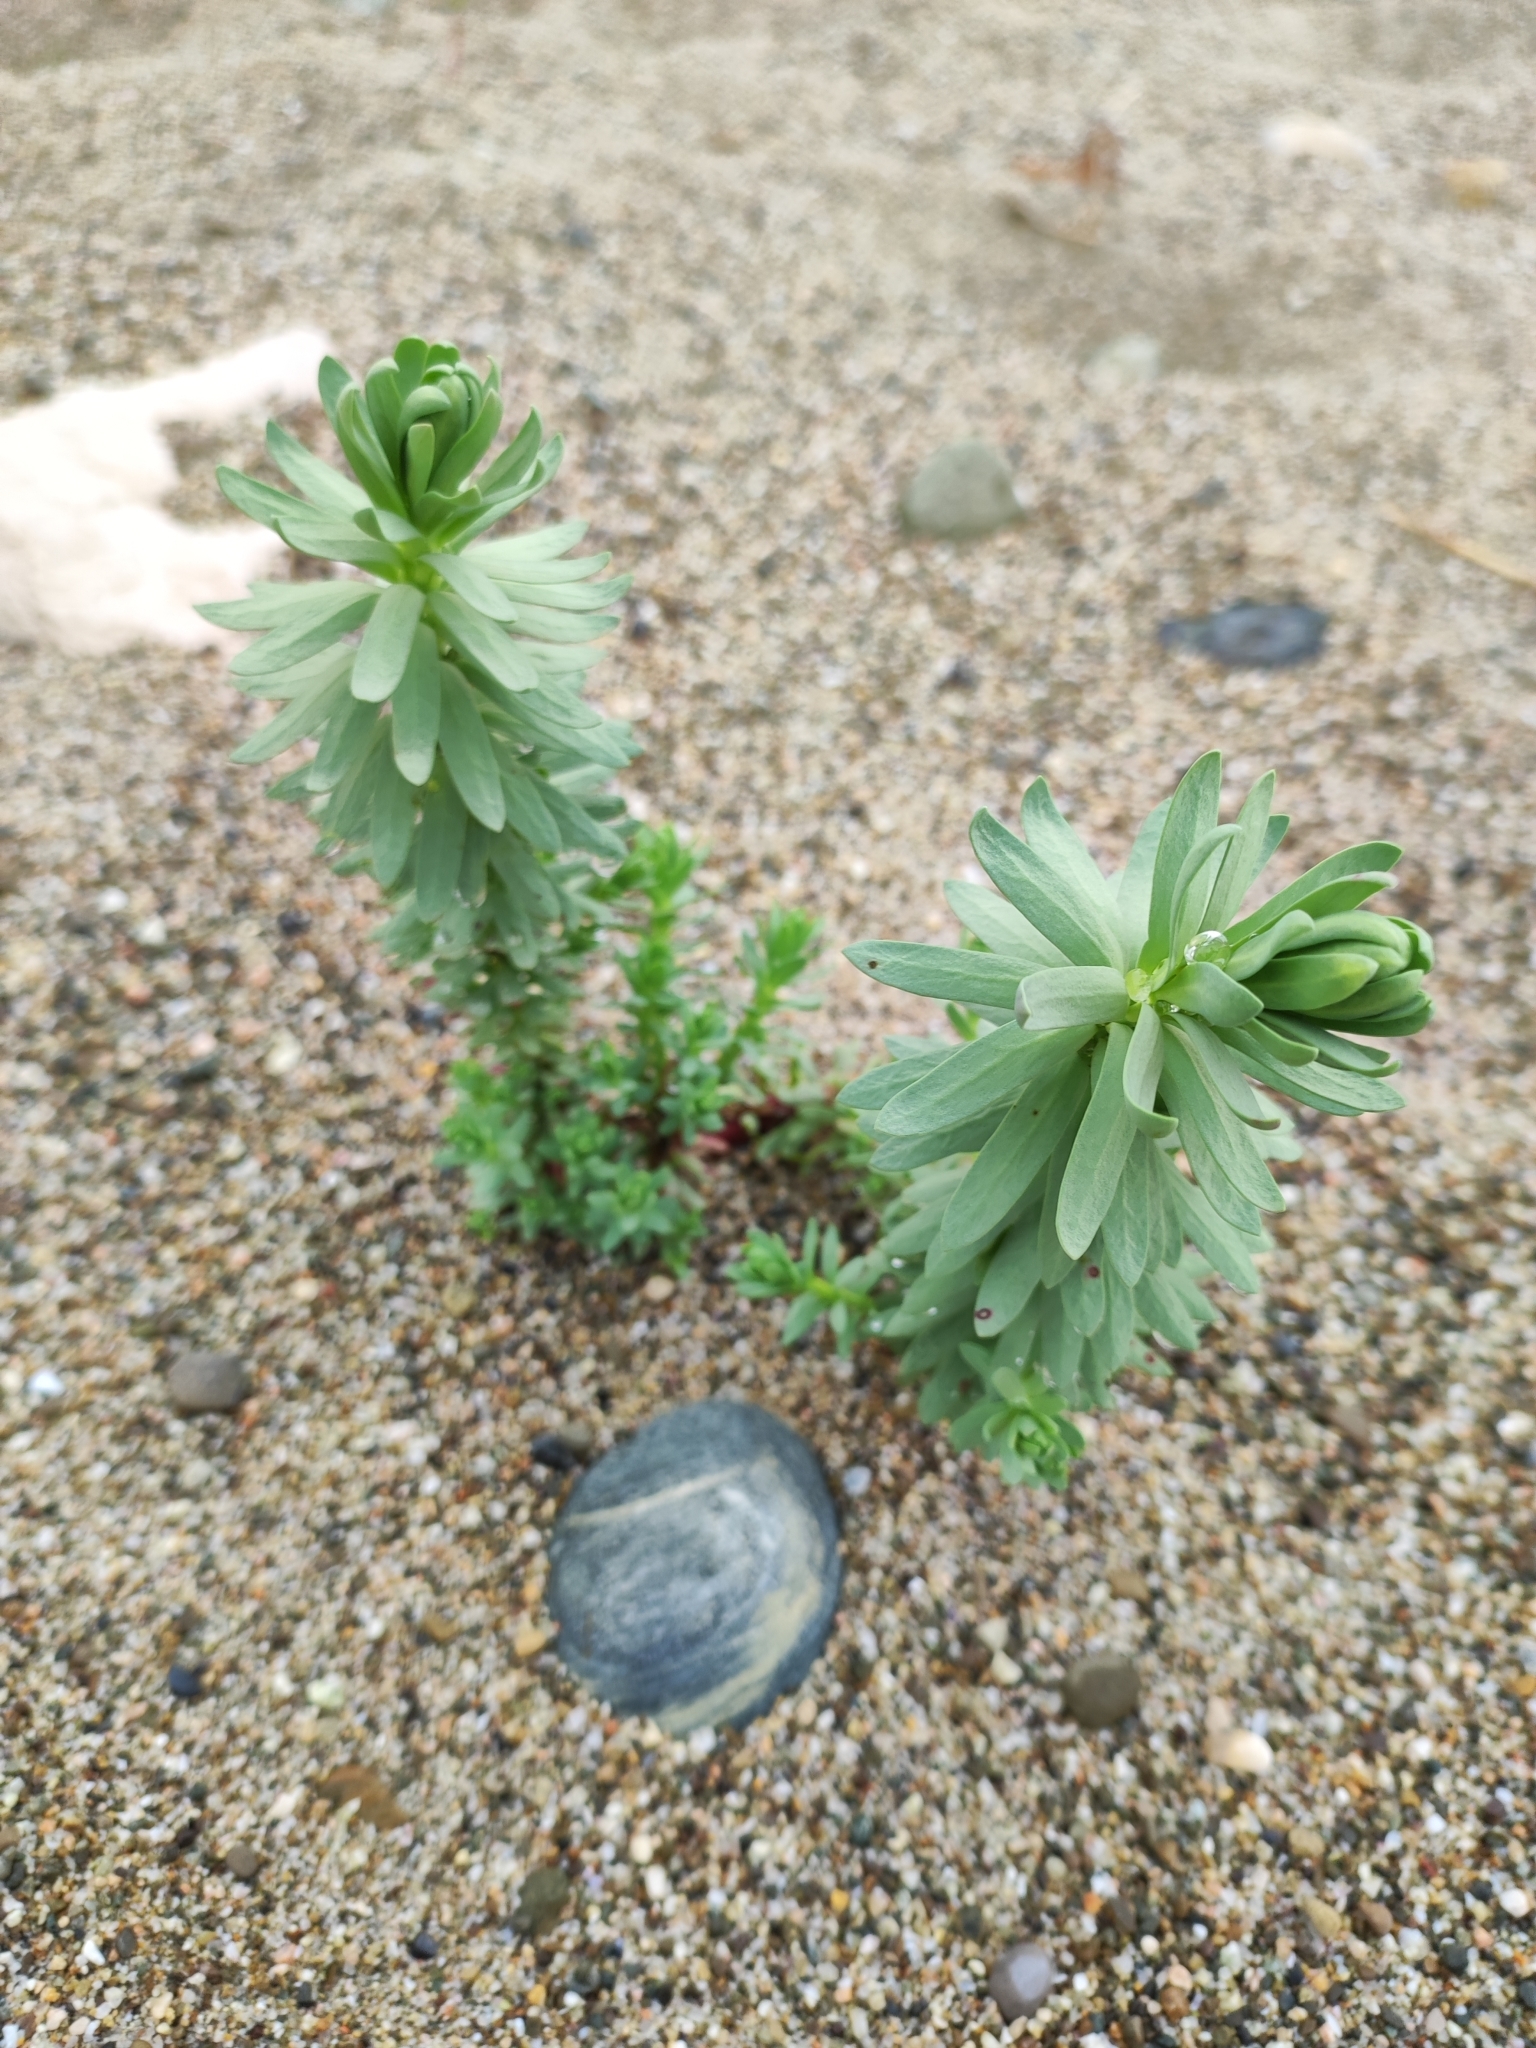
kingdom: Plantae
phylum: Tracheophyta
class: Magnoliopsida
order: Malpighiales
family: Euphorbiaceae
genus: Euphorbia
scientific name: Euphorbia paralias
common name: Sea spurge
